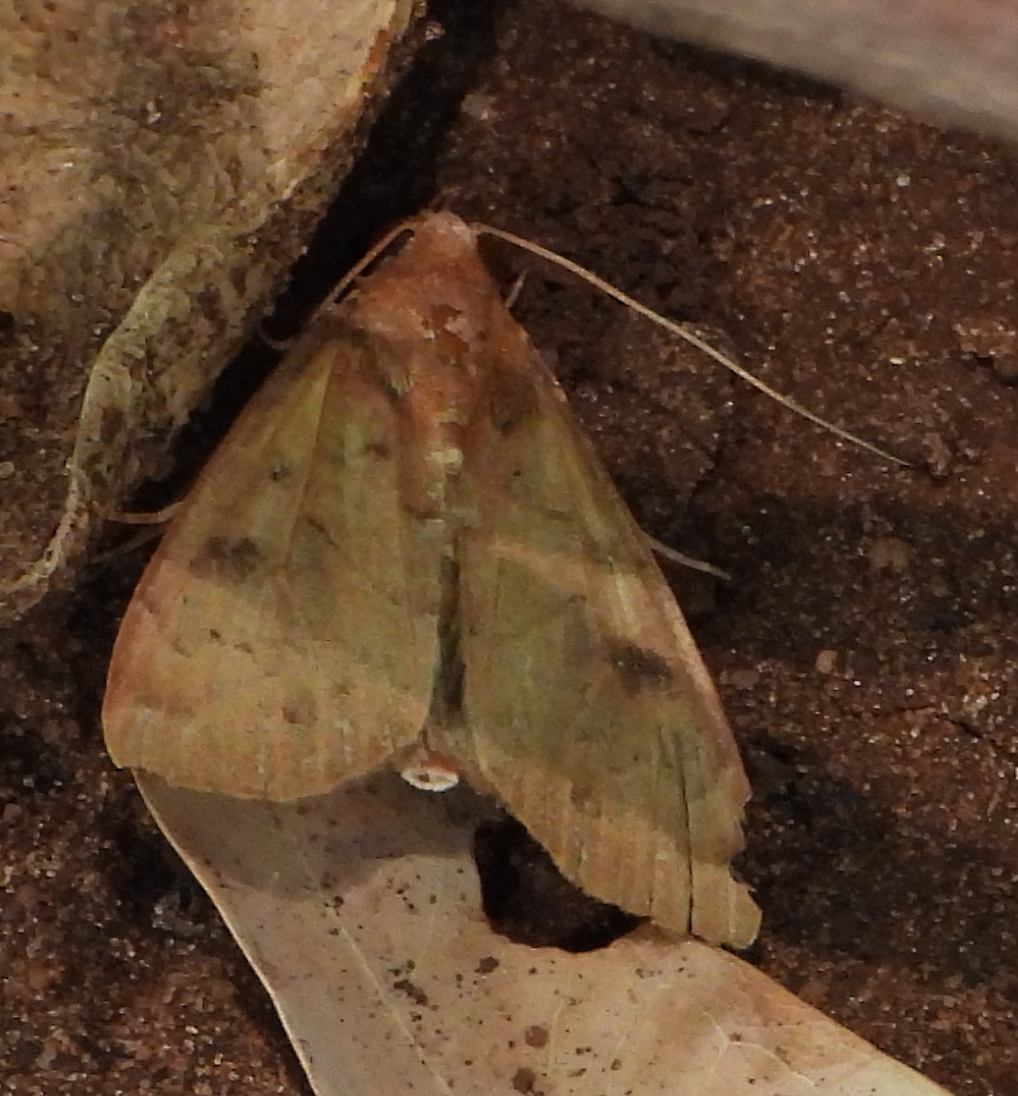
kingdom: Animalia
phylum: Arthropoda
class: Insecta
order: Lepidoptera
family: Erebidae
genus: Anomis
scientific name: Anomis bidentata
